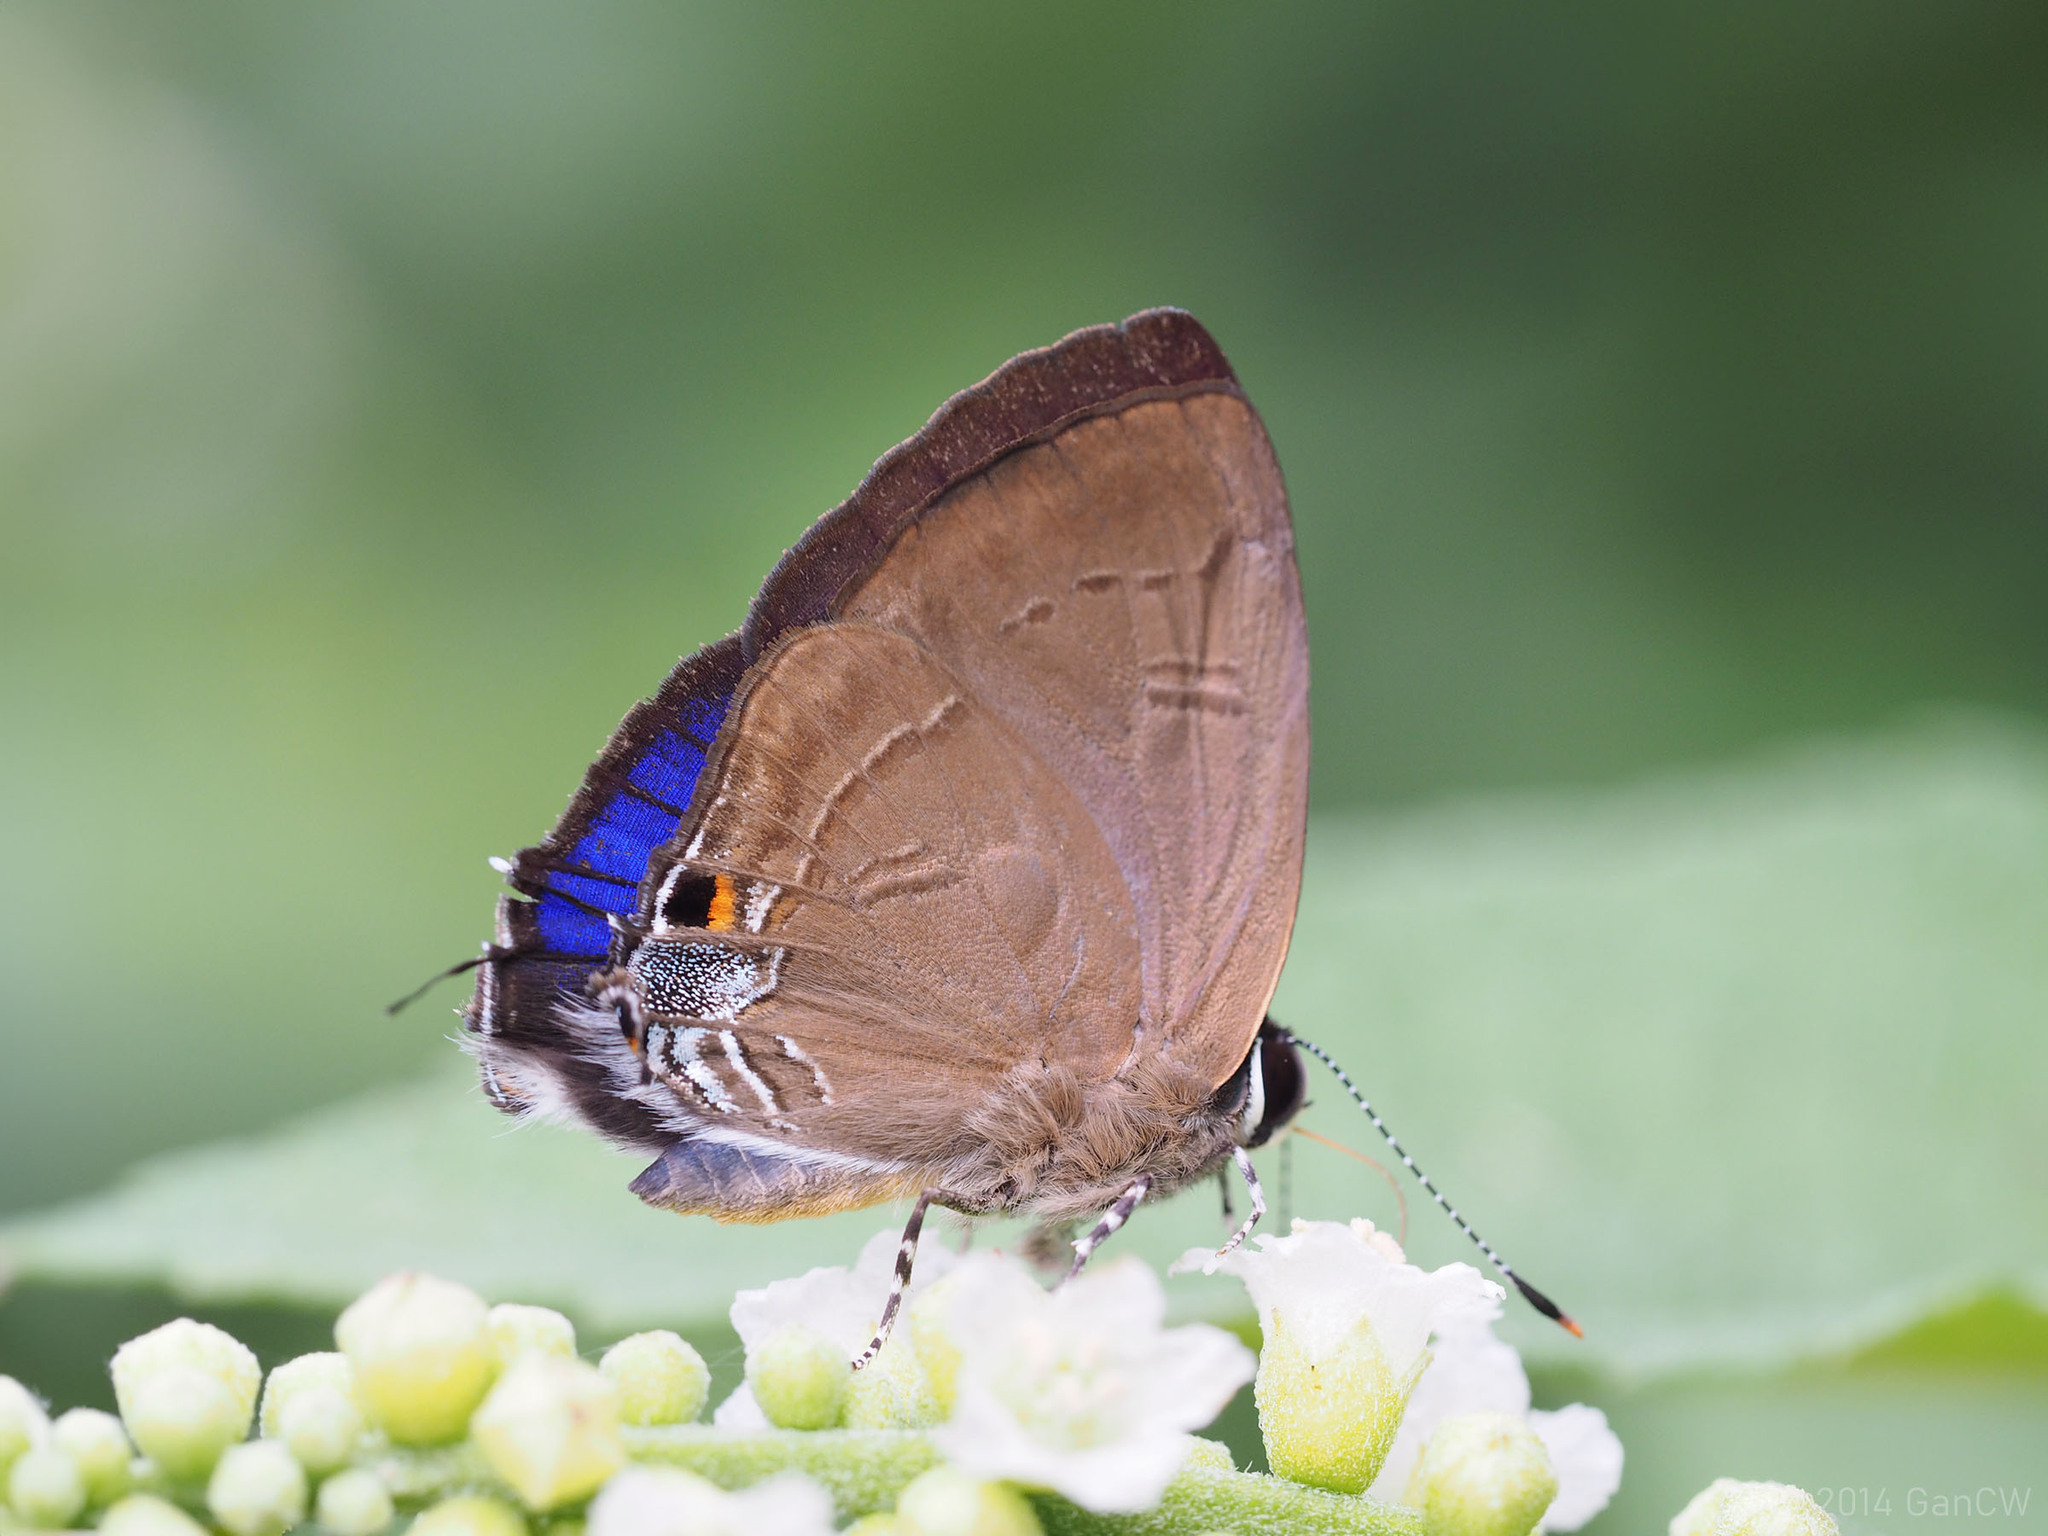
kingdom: Animalia
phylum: Arthropoda
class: Insecta
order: Lepidoptera
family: Lycaenidae
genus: Rapala
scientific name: Rapala manea
